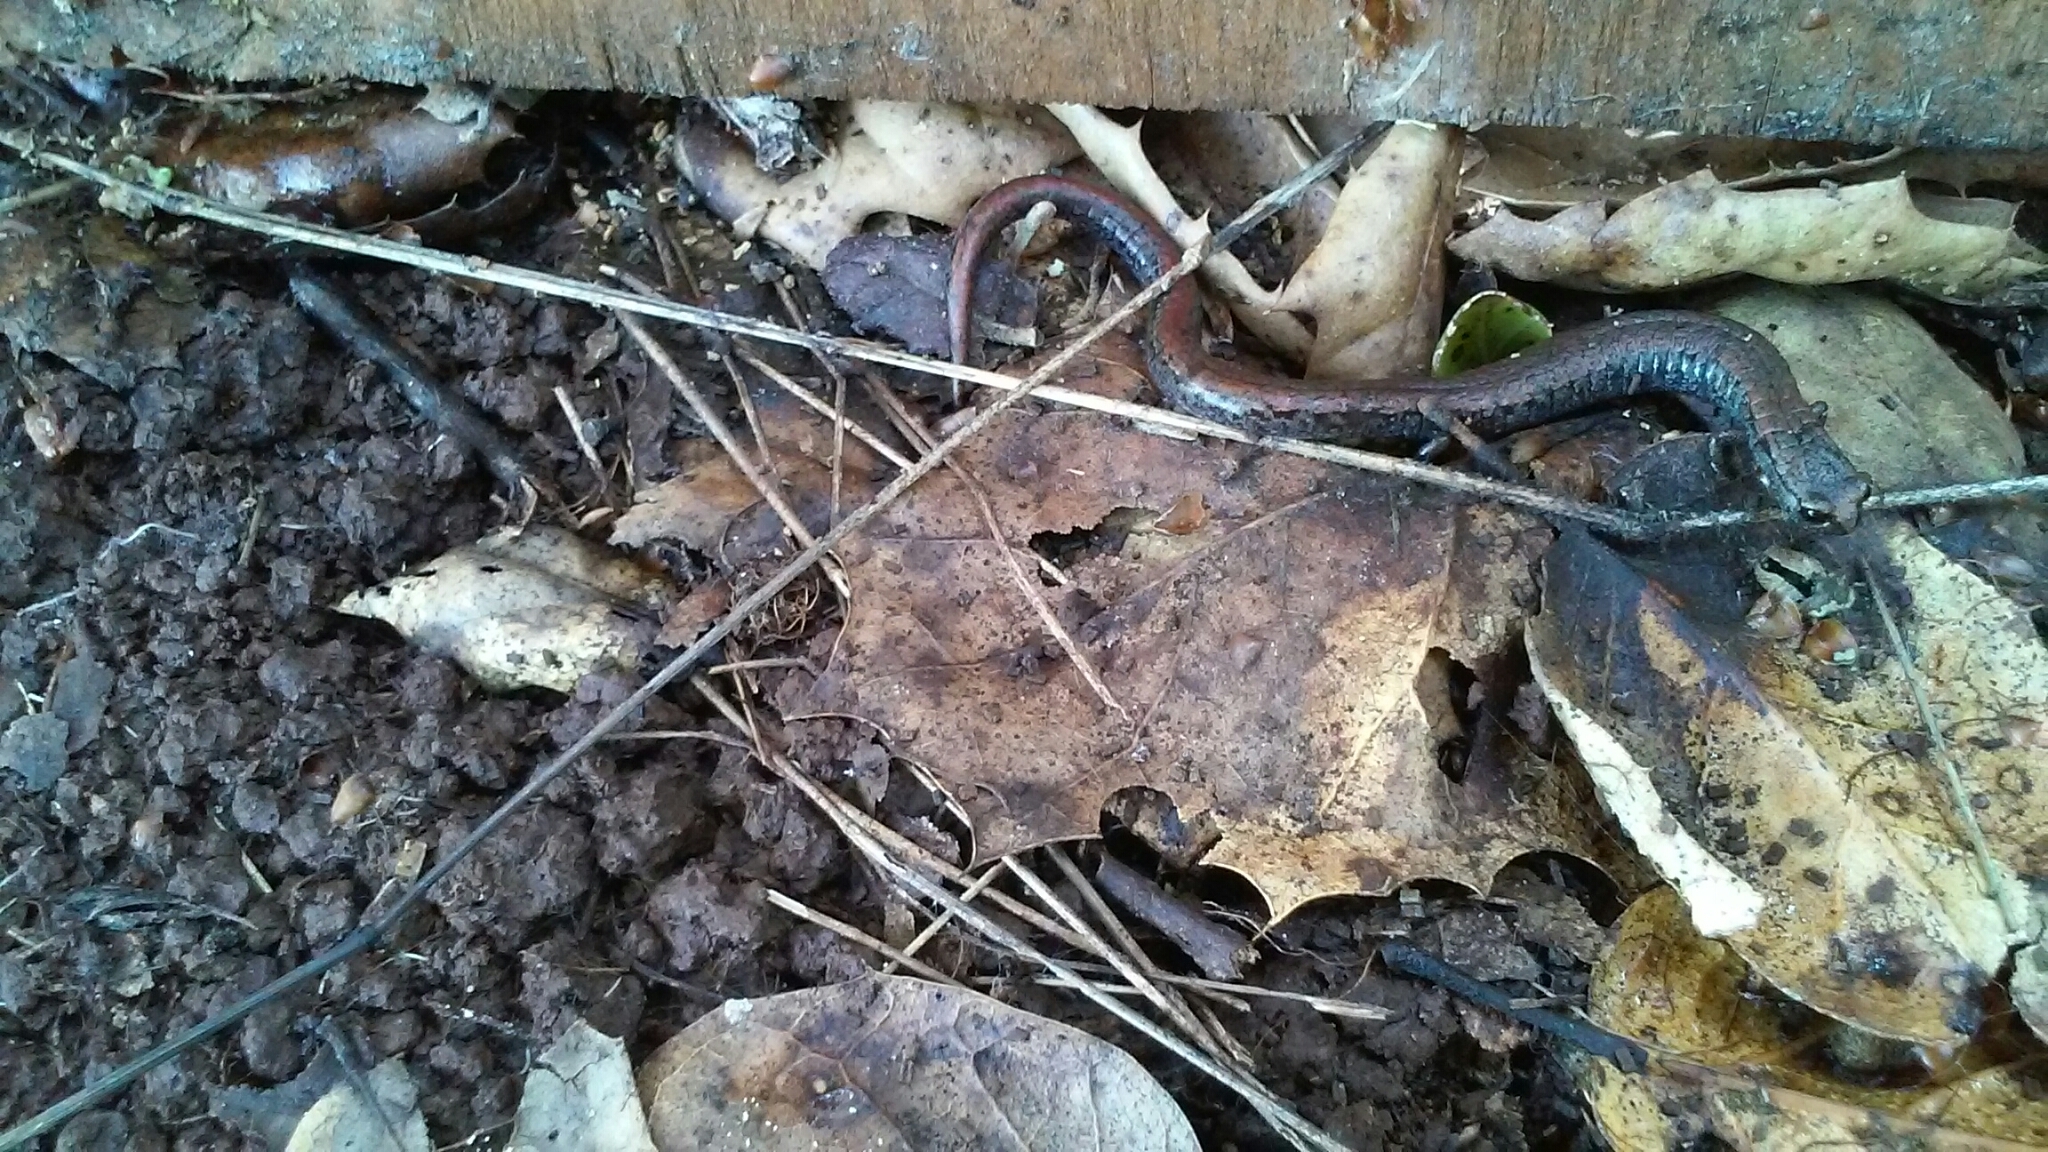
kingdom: Animalia
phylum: Chordata
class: Amphibia
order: Caudata
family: Plethodontidae
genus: Batrachoseps
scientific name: Batrachoseps attenuatus
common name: California slender salamander
